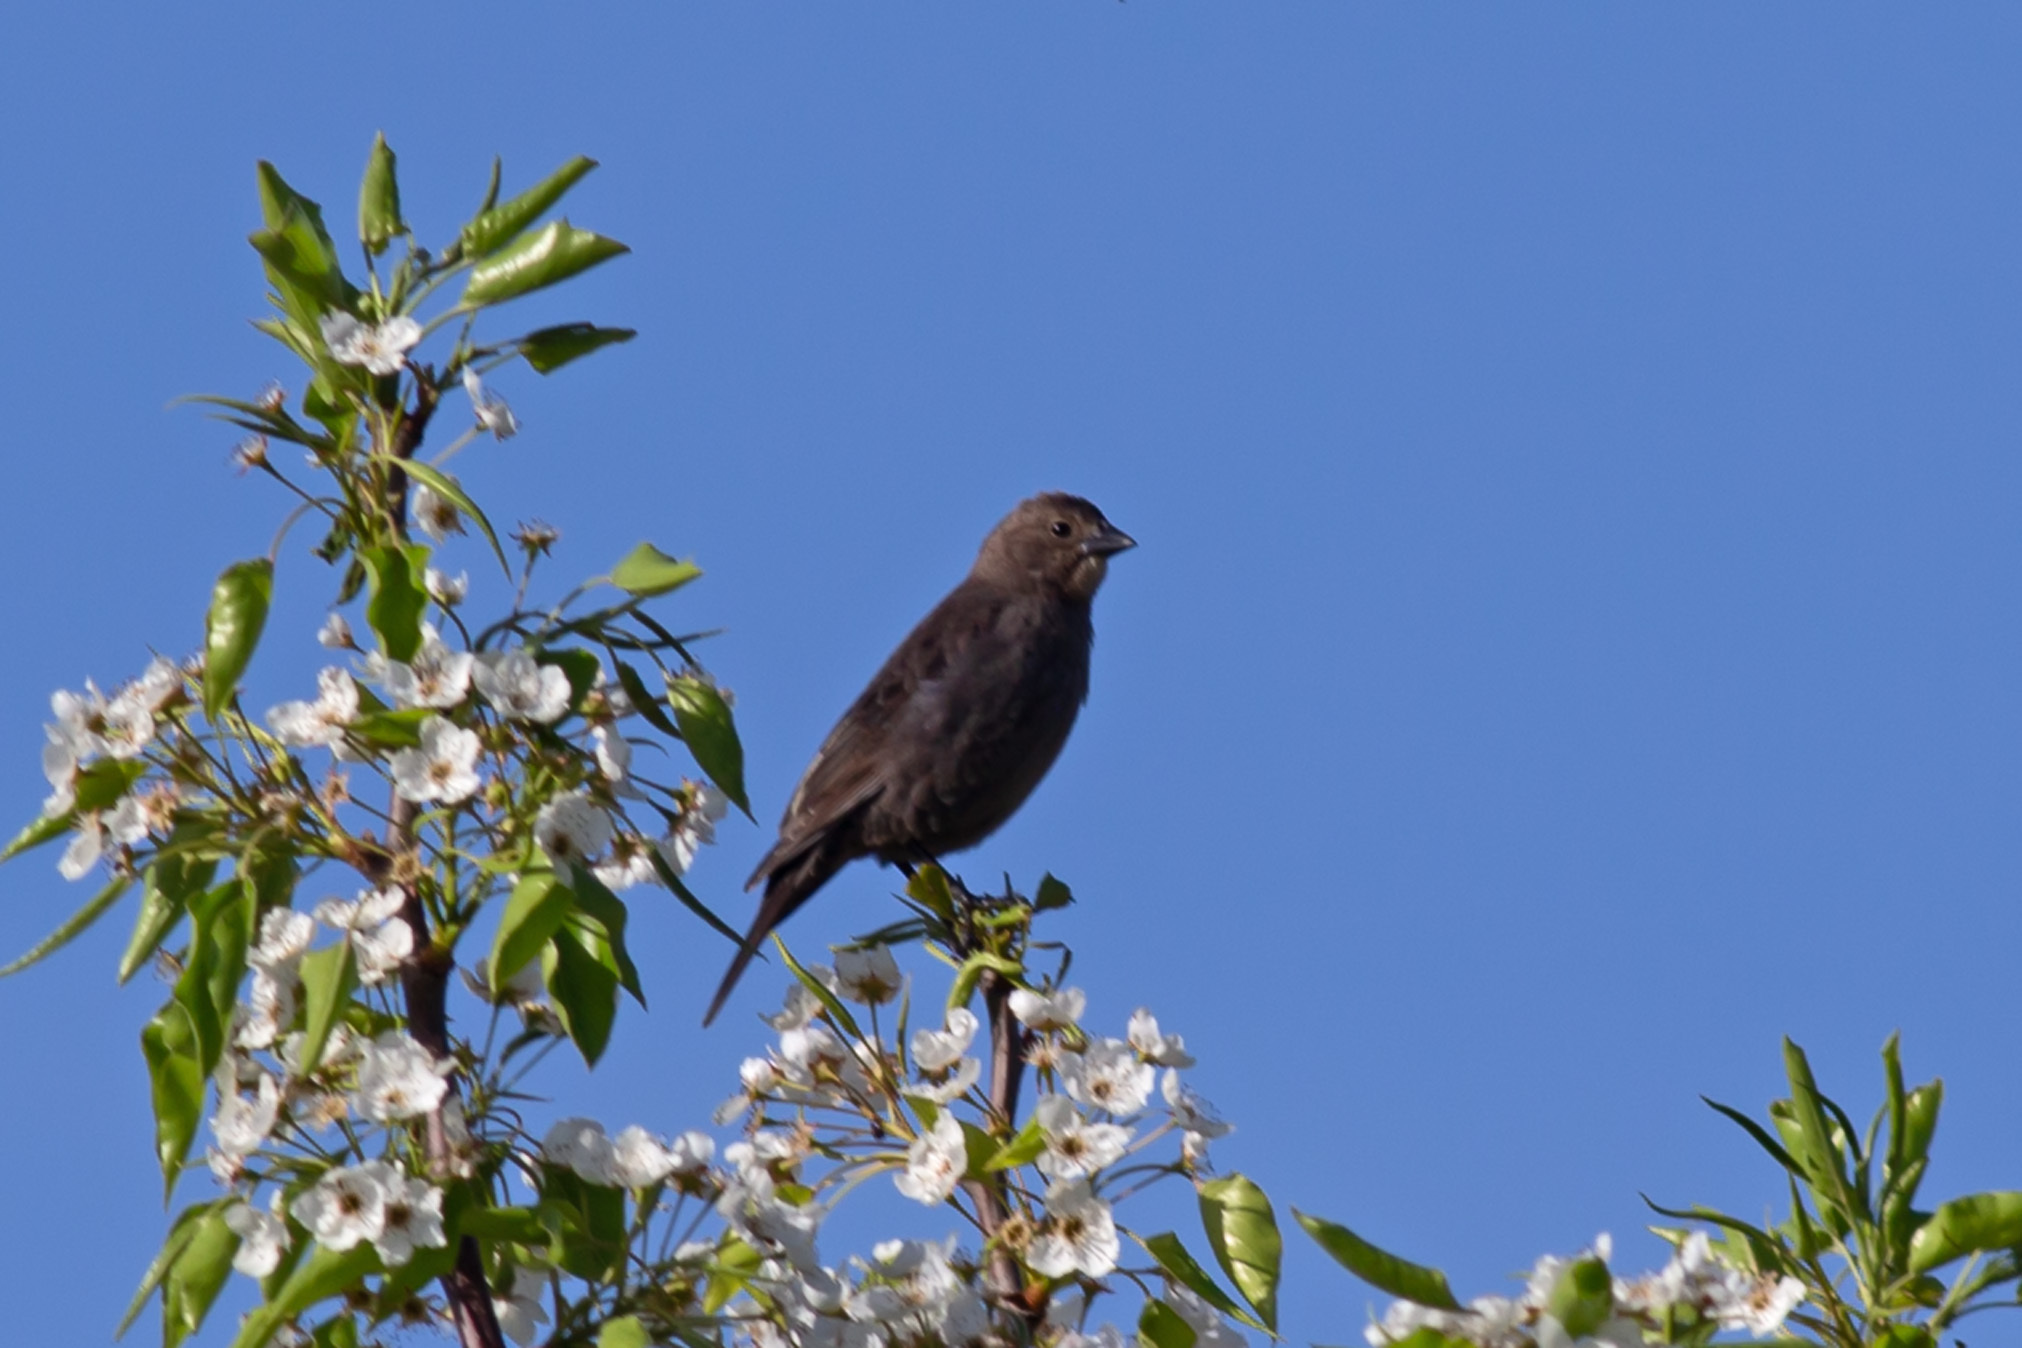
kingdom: Animalia
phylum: Chordata
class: Aves
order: Passeriformes
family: Icteridae
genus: Molothrus
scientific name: Molothrus ater
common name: Brown-headed cowbird
